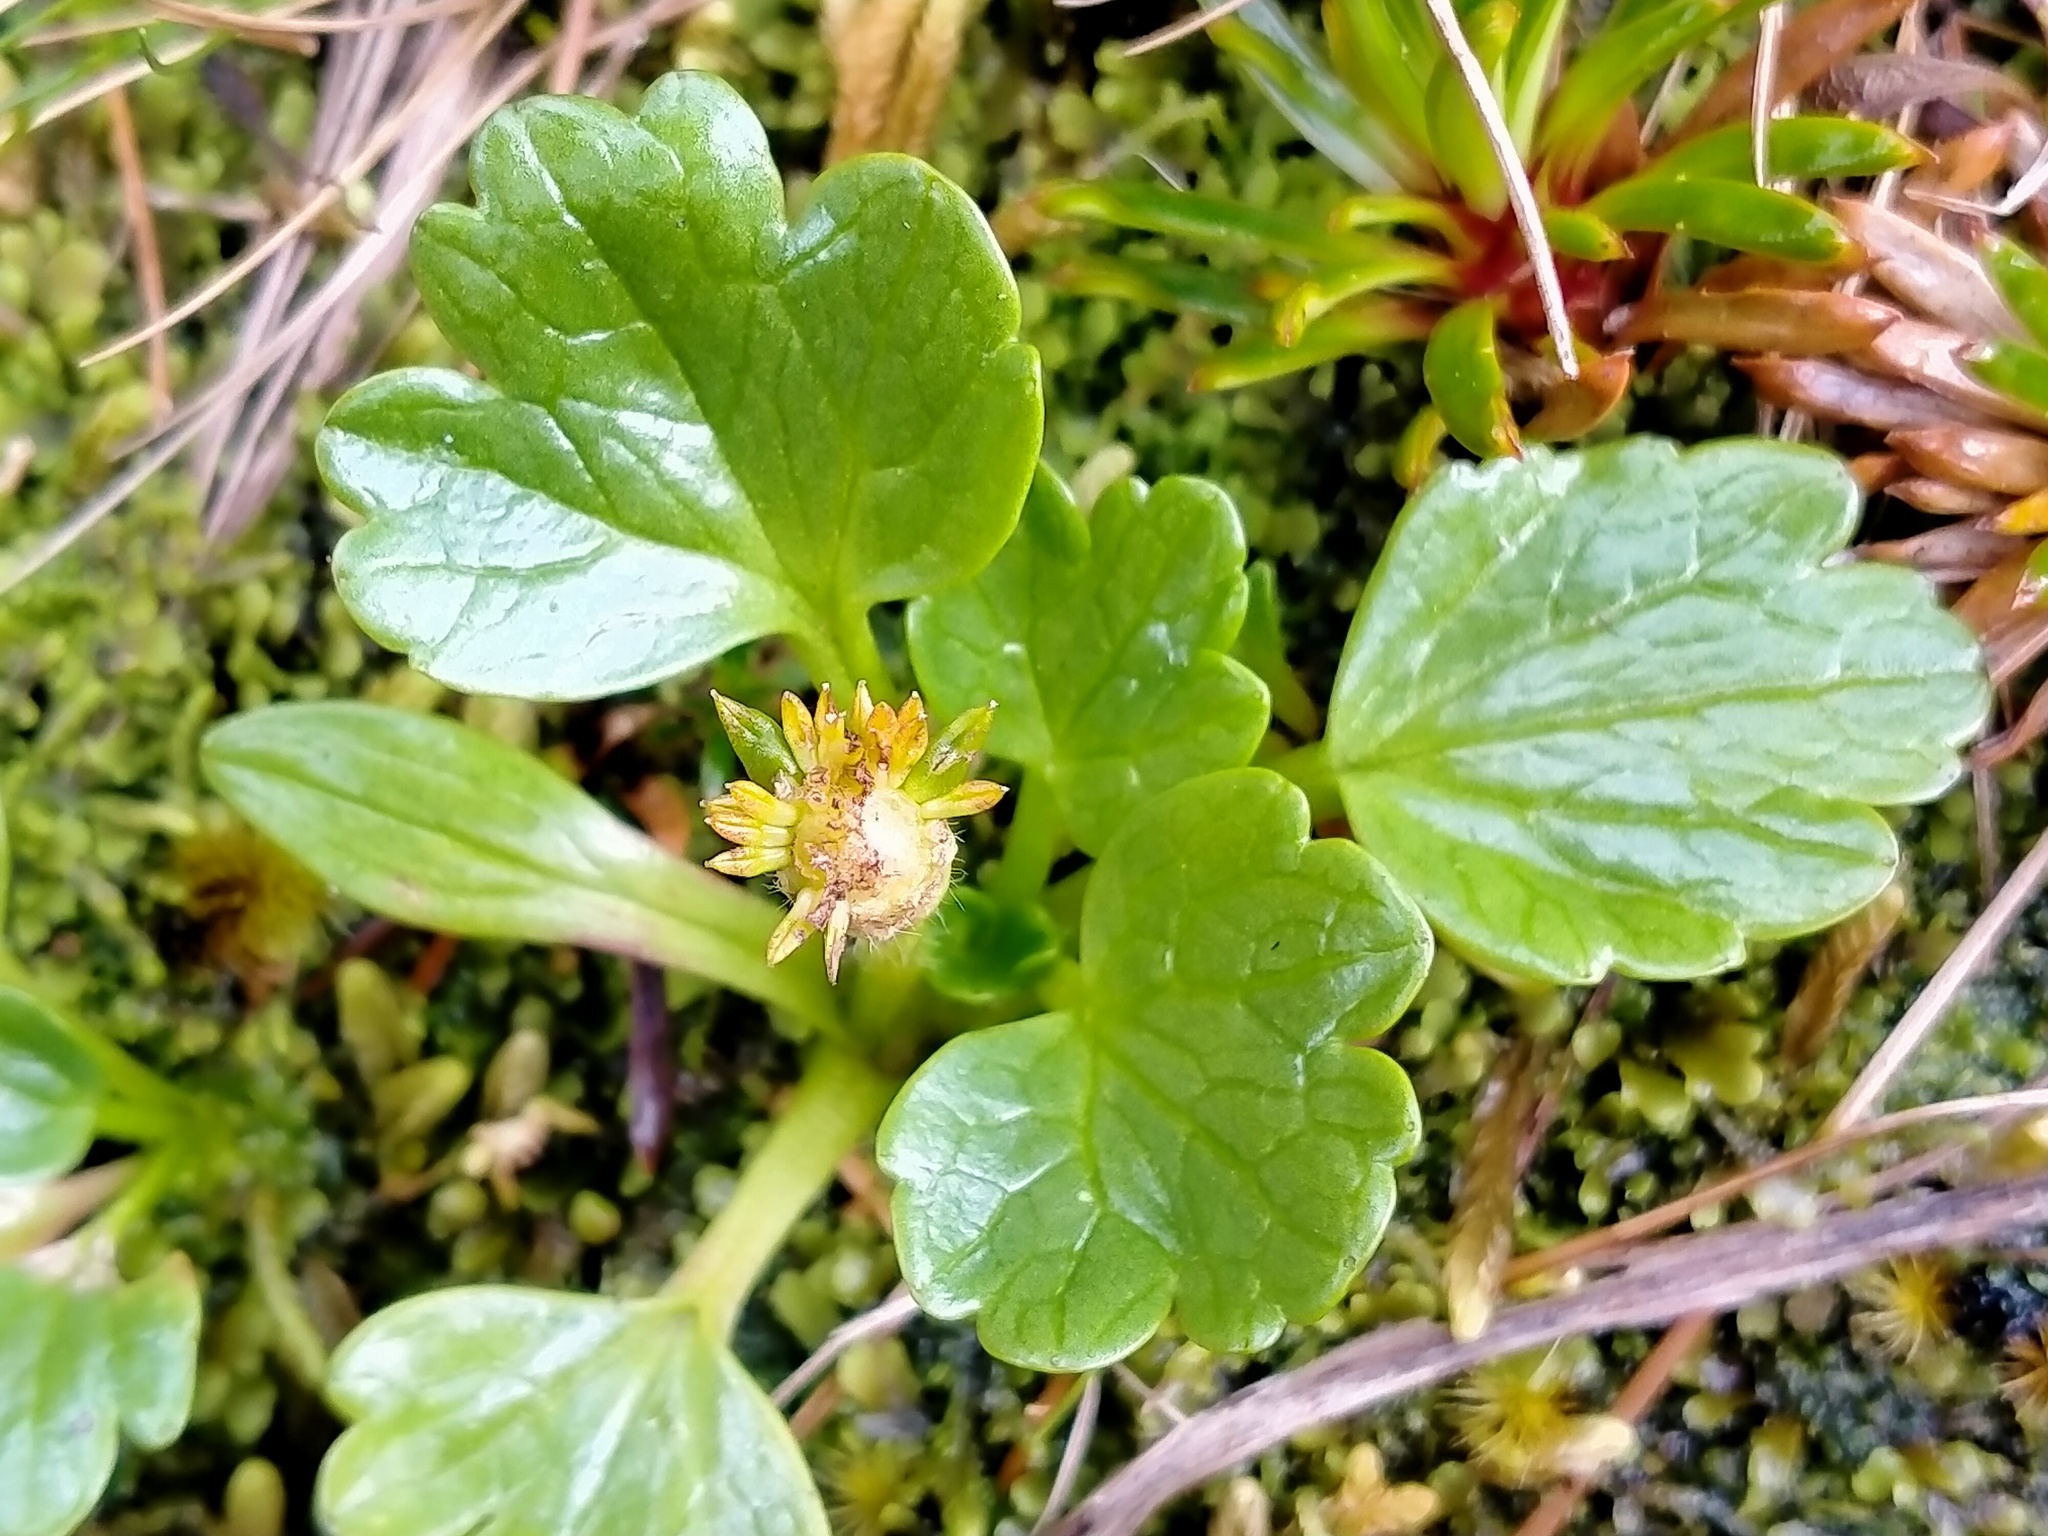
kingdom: Plantae
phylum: Tracheophyta
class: Magnoliopsida
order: Ranunculales
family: Ranunculaceae
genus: Ranunculus
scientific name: Ranunculus pinguis
